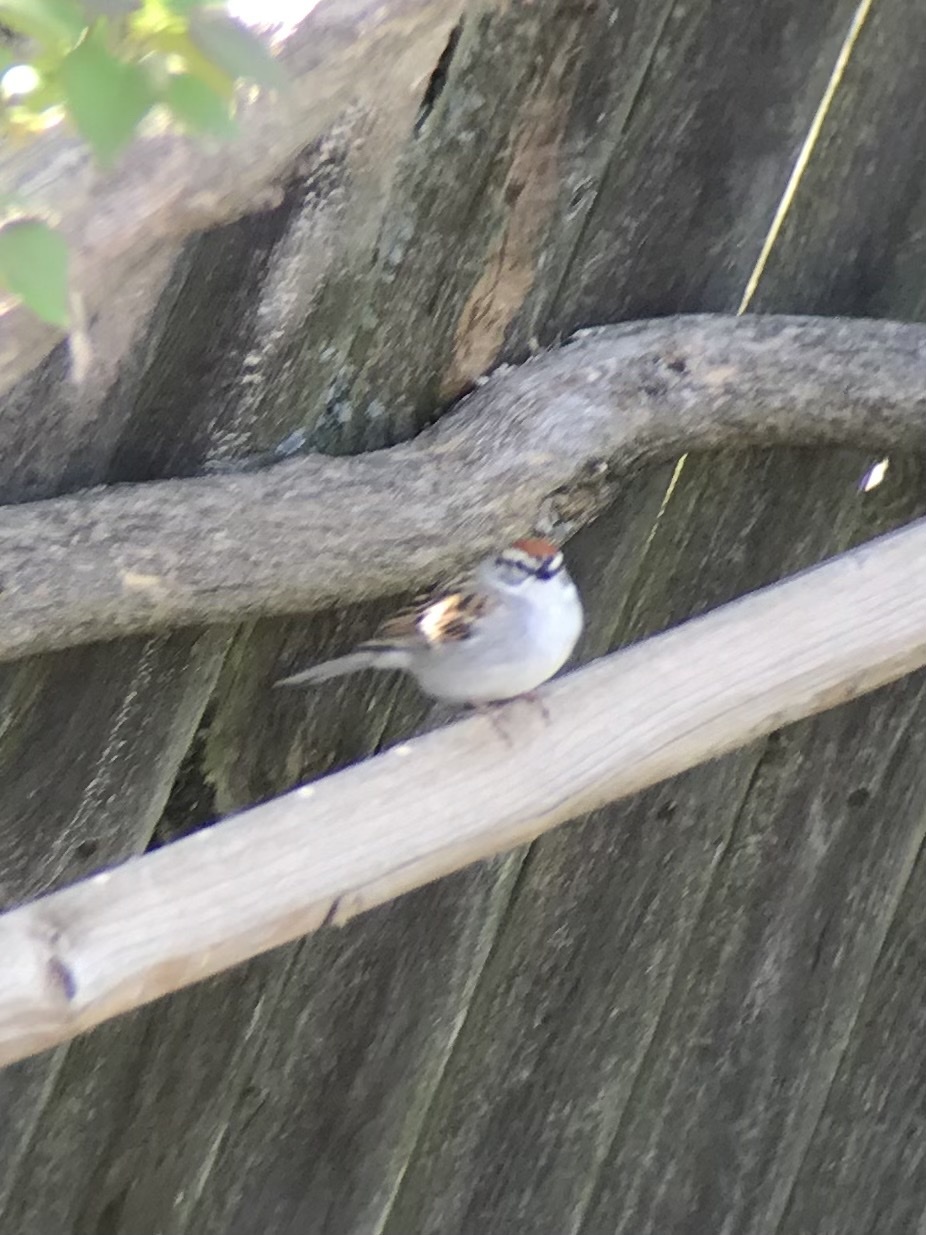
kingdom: Animalia
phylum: Chordata
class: Aves
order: Passeriformes
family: Passerellidae
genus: Spizella
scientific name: Spizella passerina
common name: Chipping sparrow
